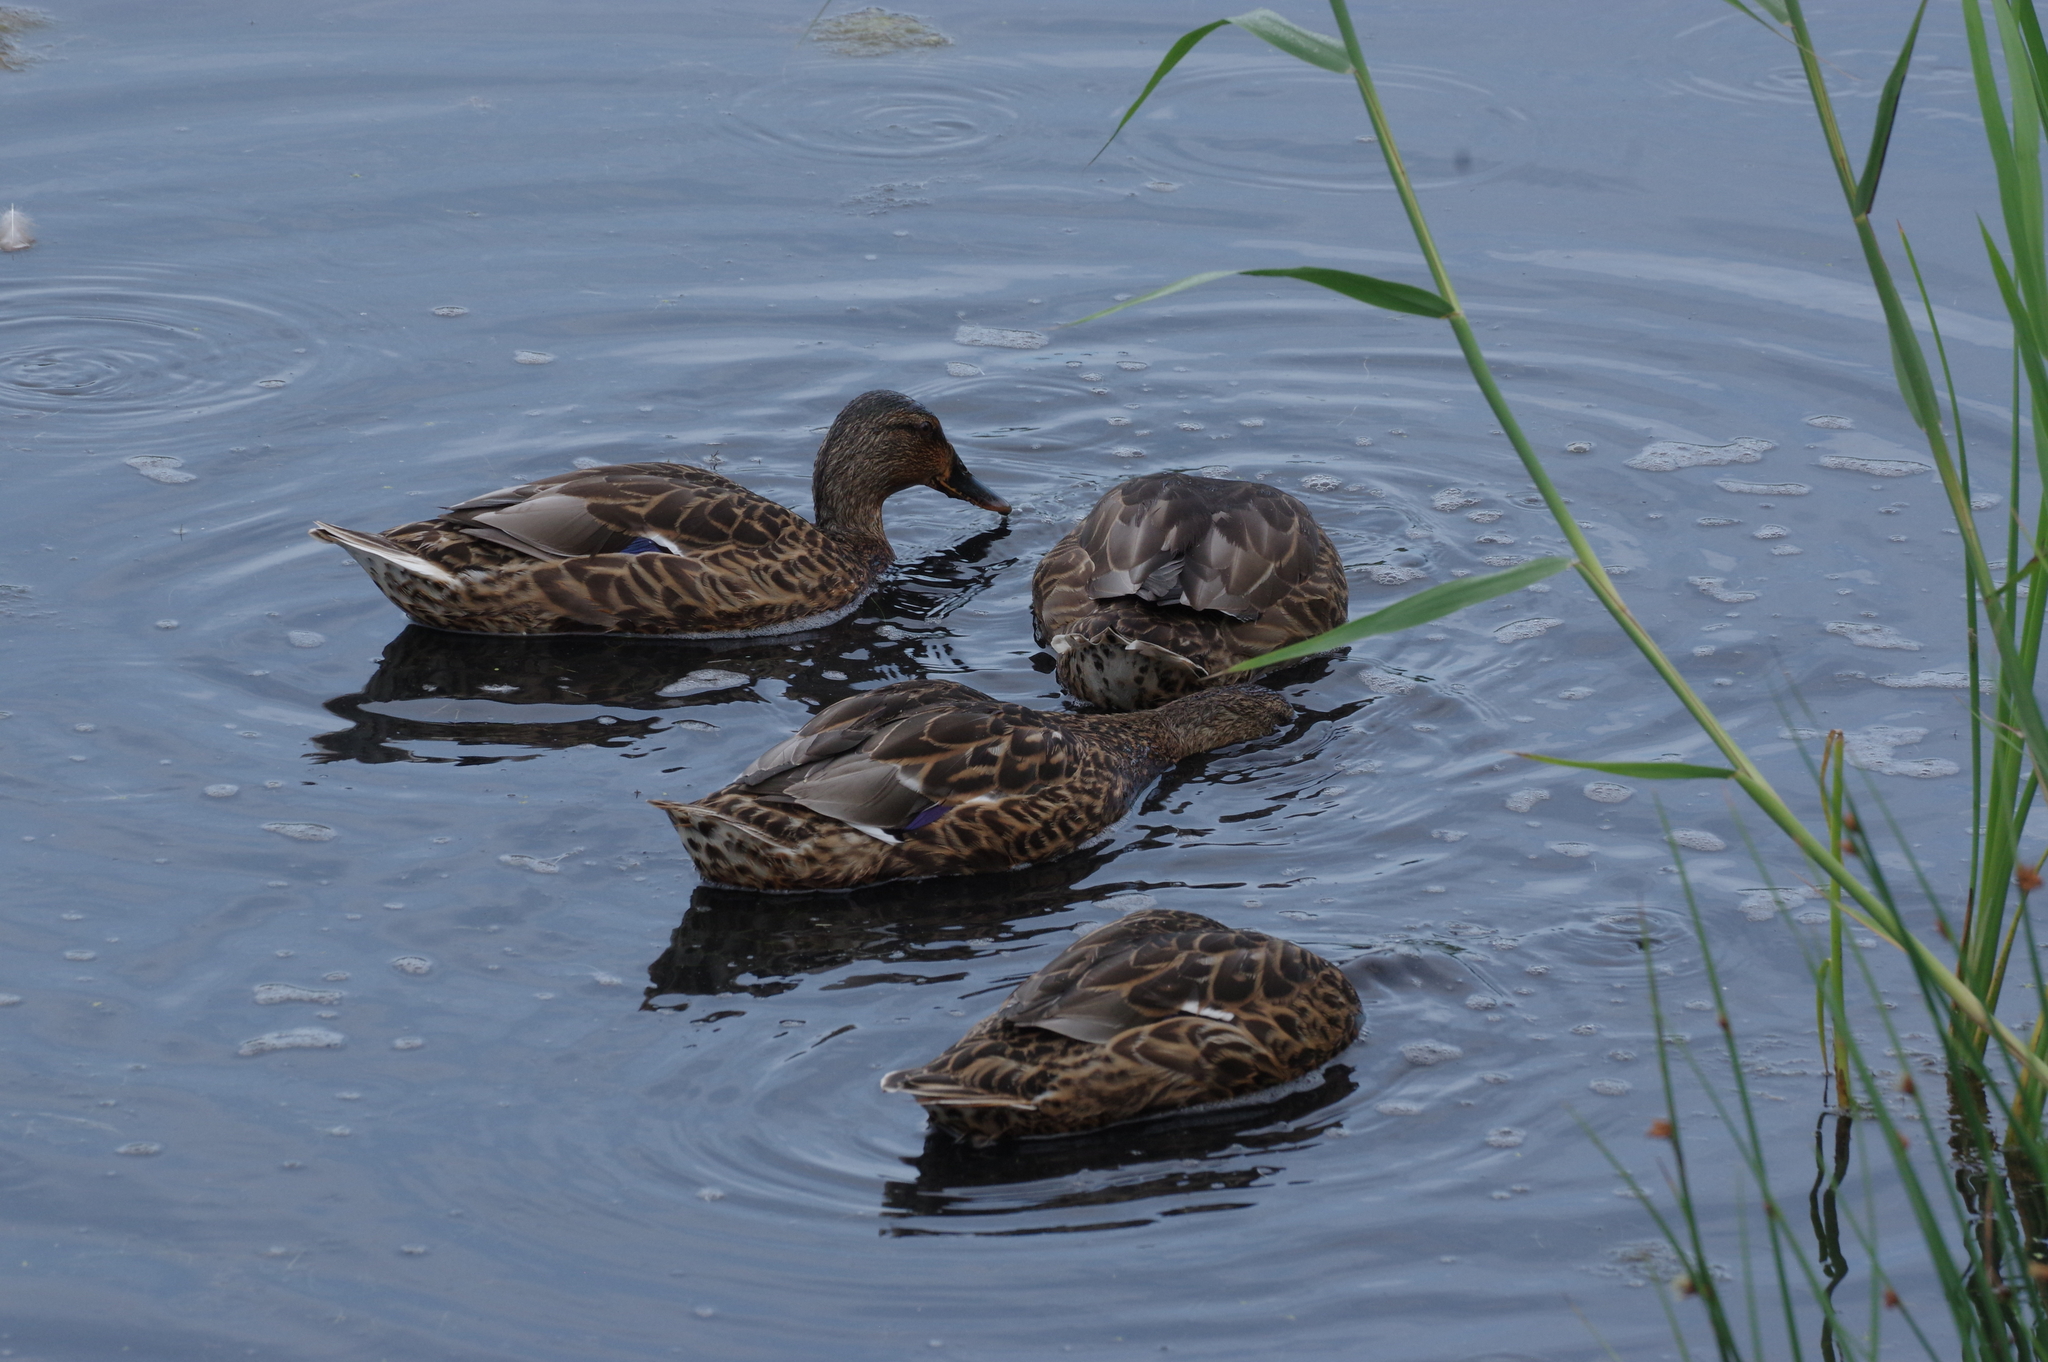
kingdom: Animalia
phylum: Chordata
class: Aves
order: Anseriformes
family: Anatidae
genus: Anas
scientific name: Anas platyrhynchos
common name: Mallard
